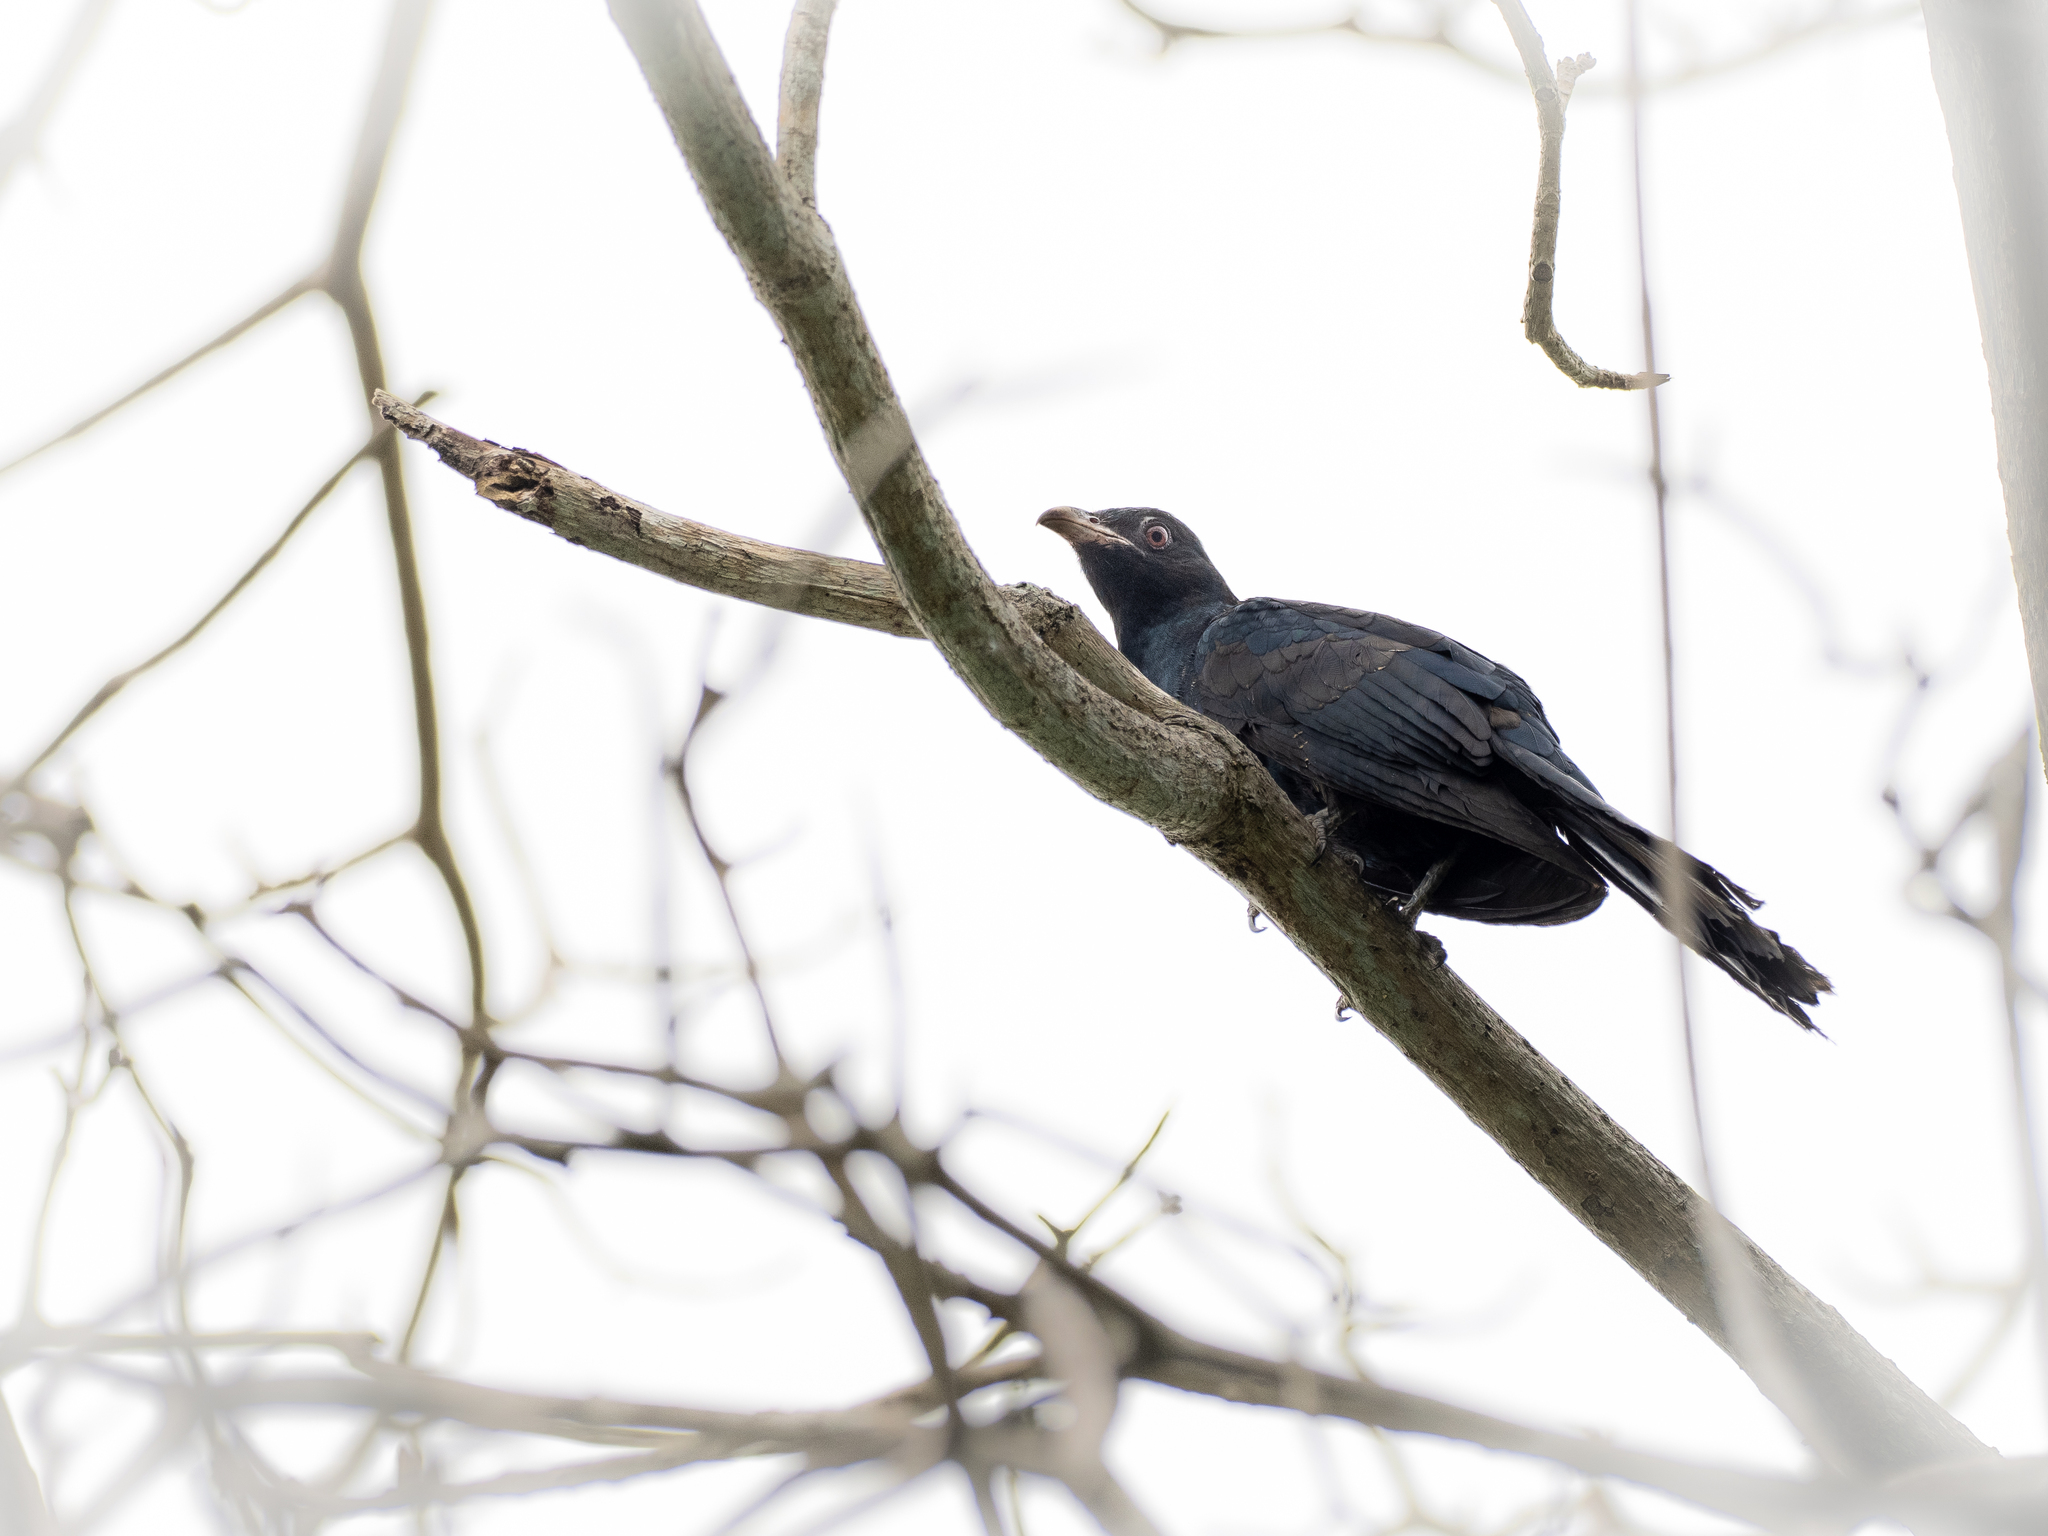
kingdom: Animalia
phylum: Chordata
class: Aves
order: Cuculiformes
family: Cuculidae
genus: Eudynamys
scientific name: Eudynamys scolopaceus
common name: Asian koel
